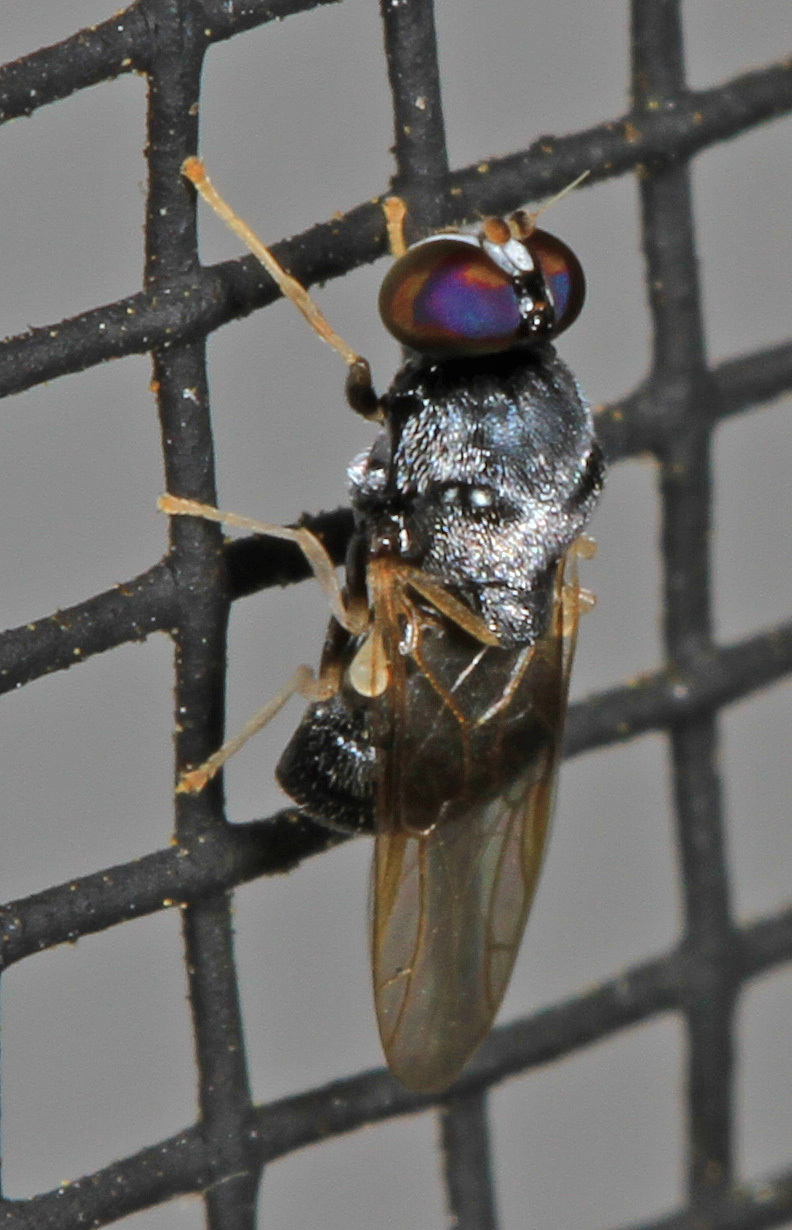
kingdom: Animalia
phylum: Arthropoda
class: Insecta
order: Diptera
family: Stratiomyidae
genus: Neopachygaster
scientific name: Neopachygaster maculicornis
